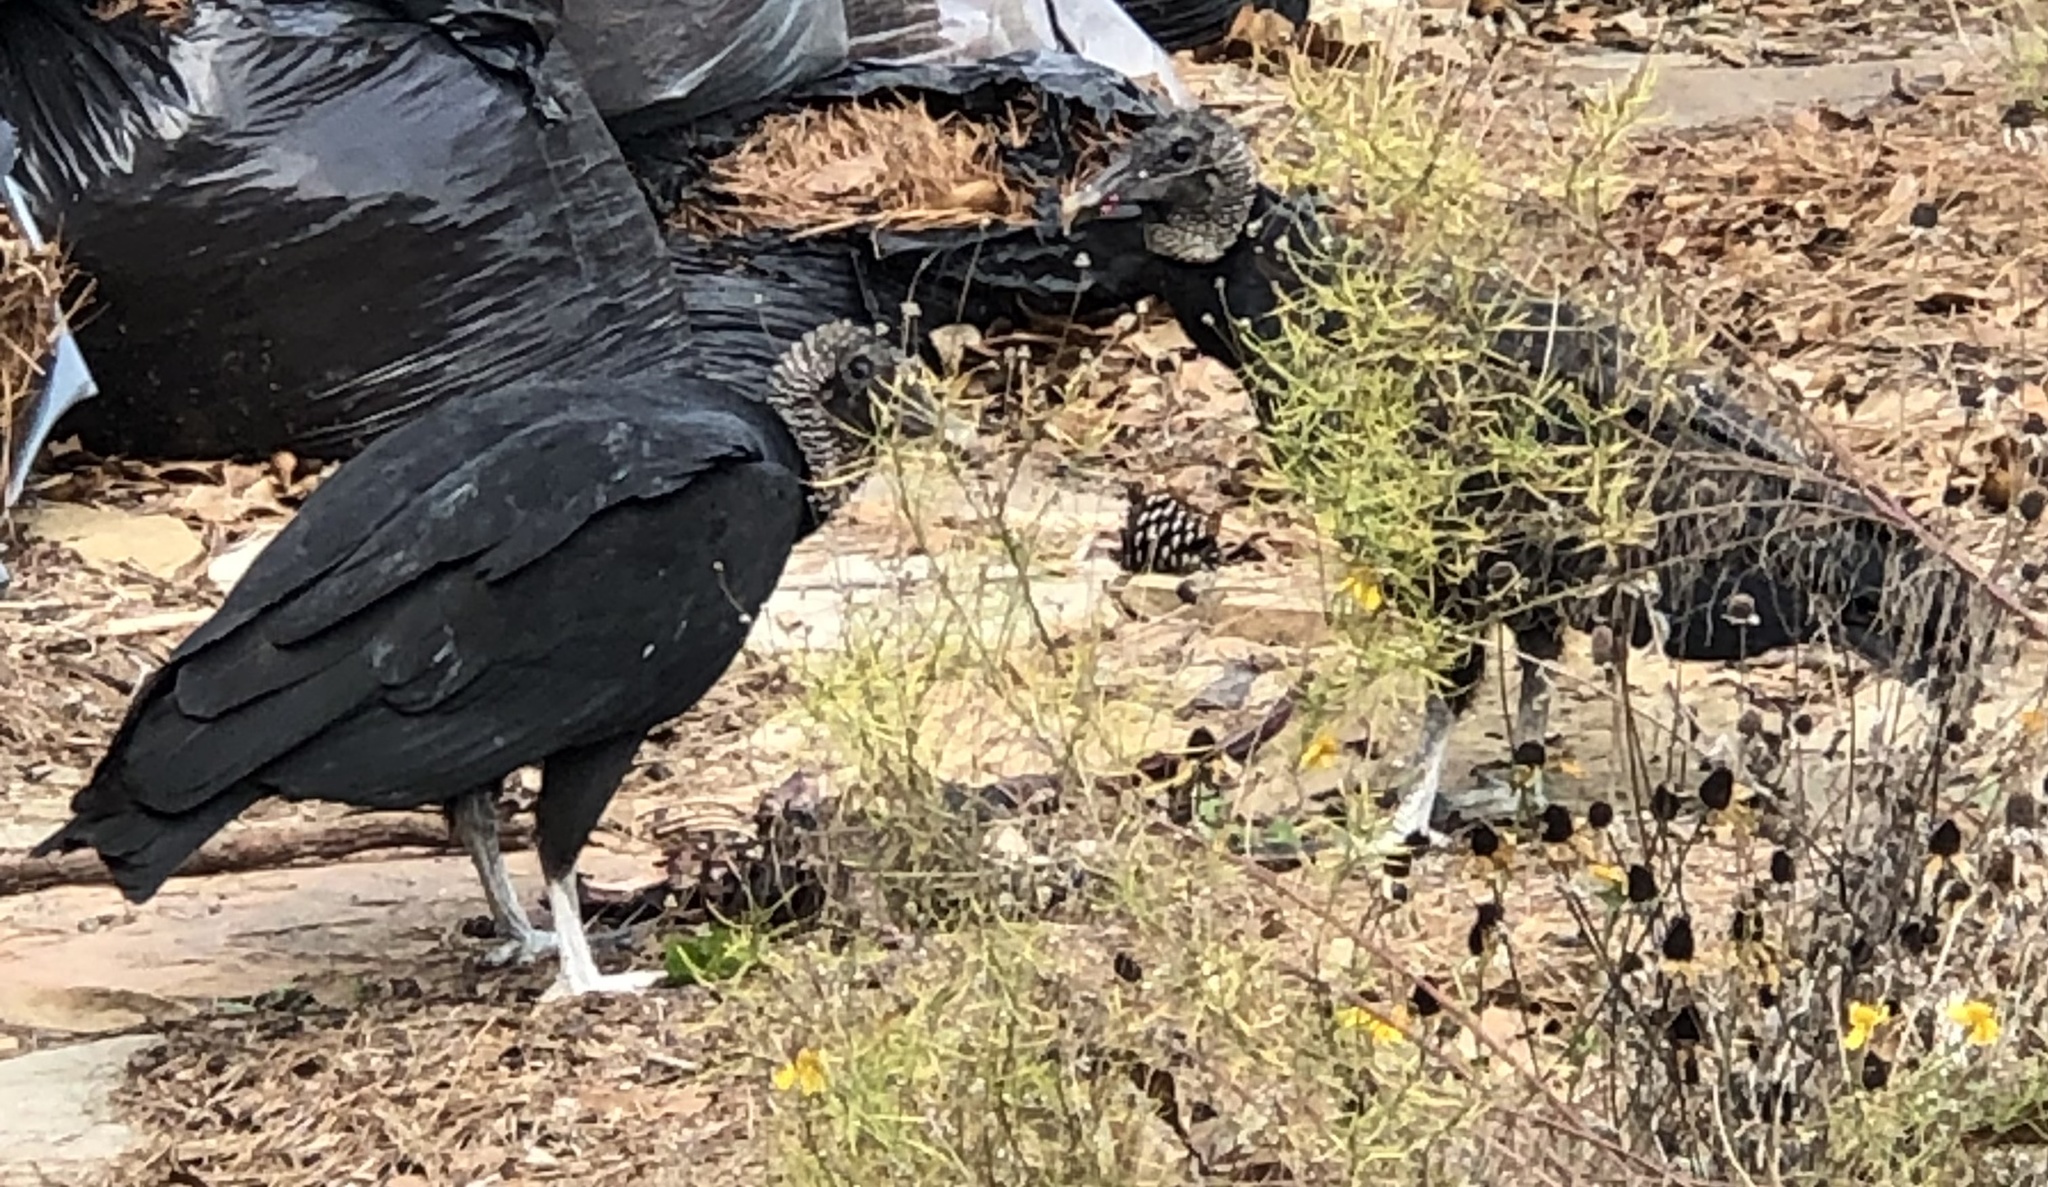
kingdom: Animalia
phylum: Chordata
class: Aves
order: Accipitriformes
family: Cathartidae
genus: Coragyps
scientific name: Coragyps atratus
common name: Black vulture
